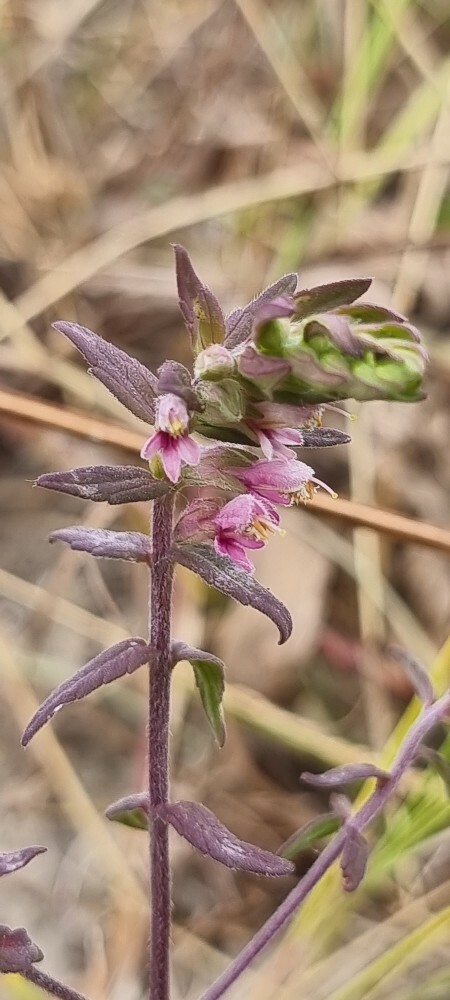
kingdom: Plantae
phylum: Tracheophyta
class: Magnoliopsida
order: Lamiales
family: Orobanchaceae
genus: Odontites
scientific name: Odontites vernus
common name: Red bartsia
